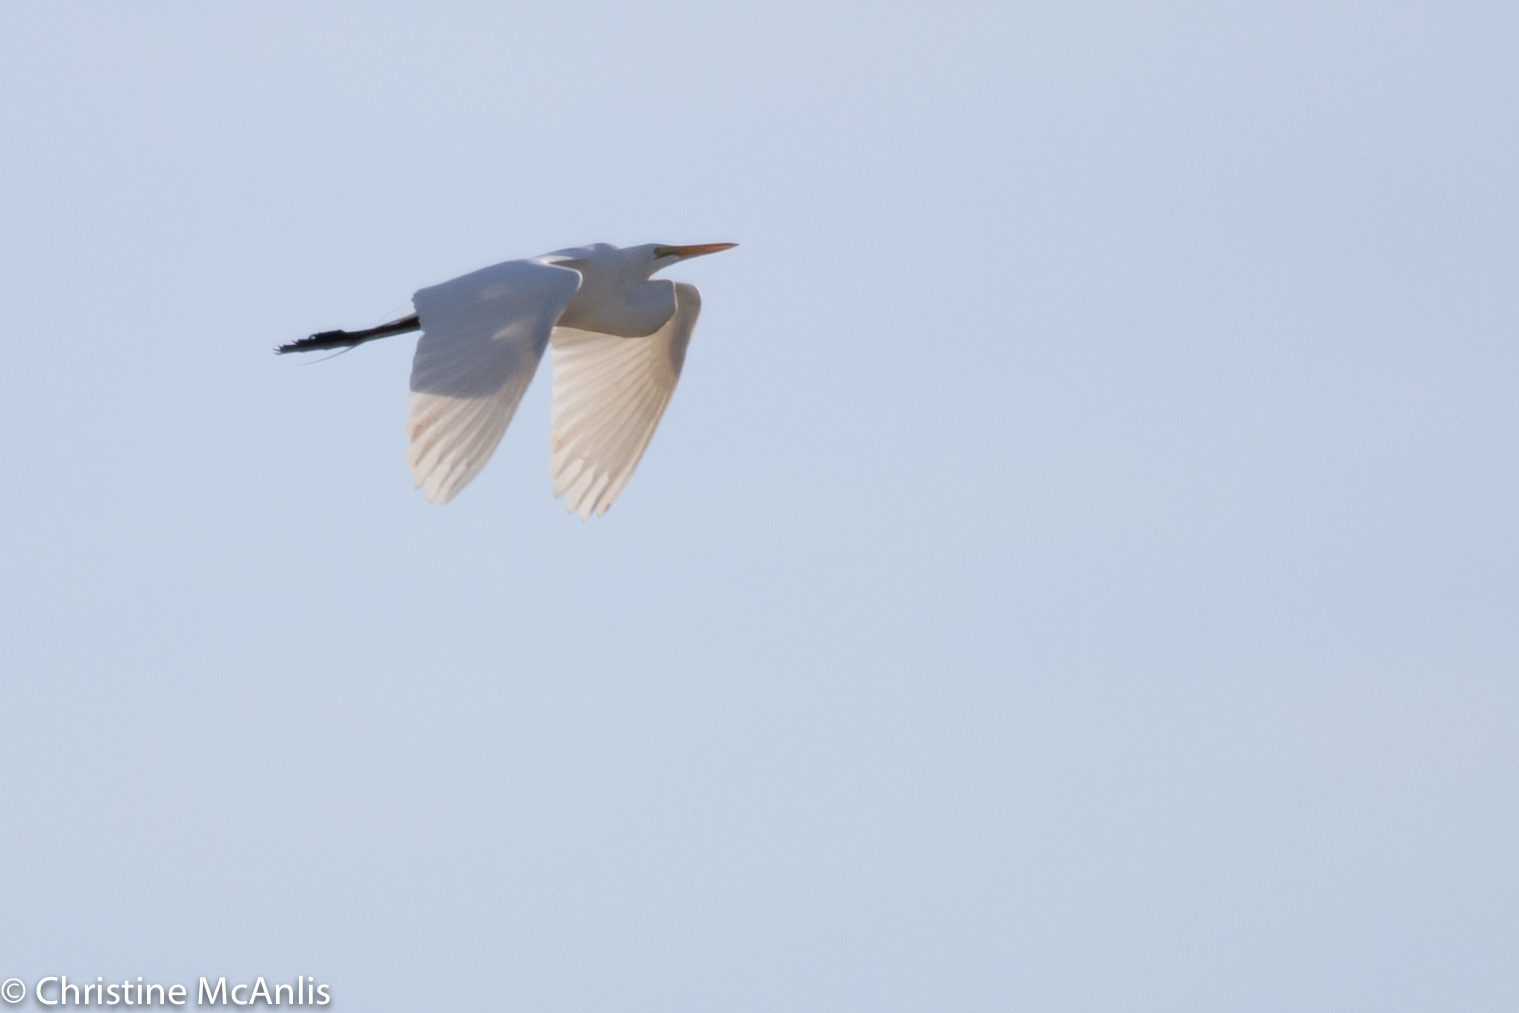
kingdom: Animalia
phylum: Chordata
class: Aves
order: Pelecaniformes
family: Ardeidae
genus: Ardea
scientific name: Ardea alba
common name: Great egret
